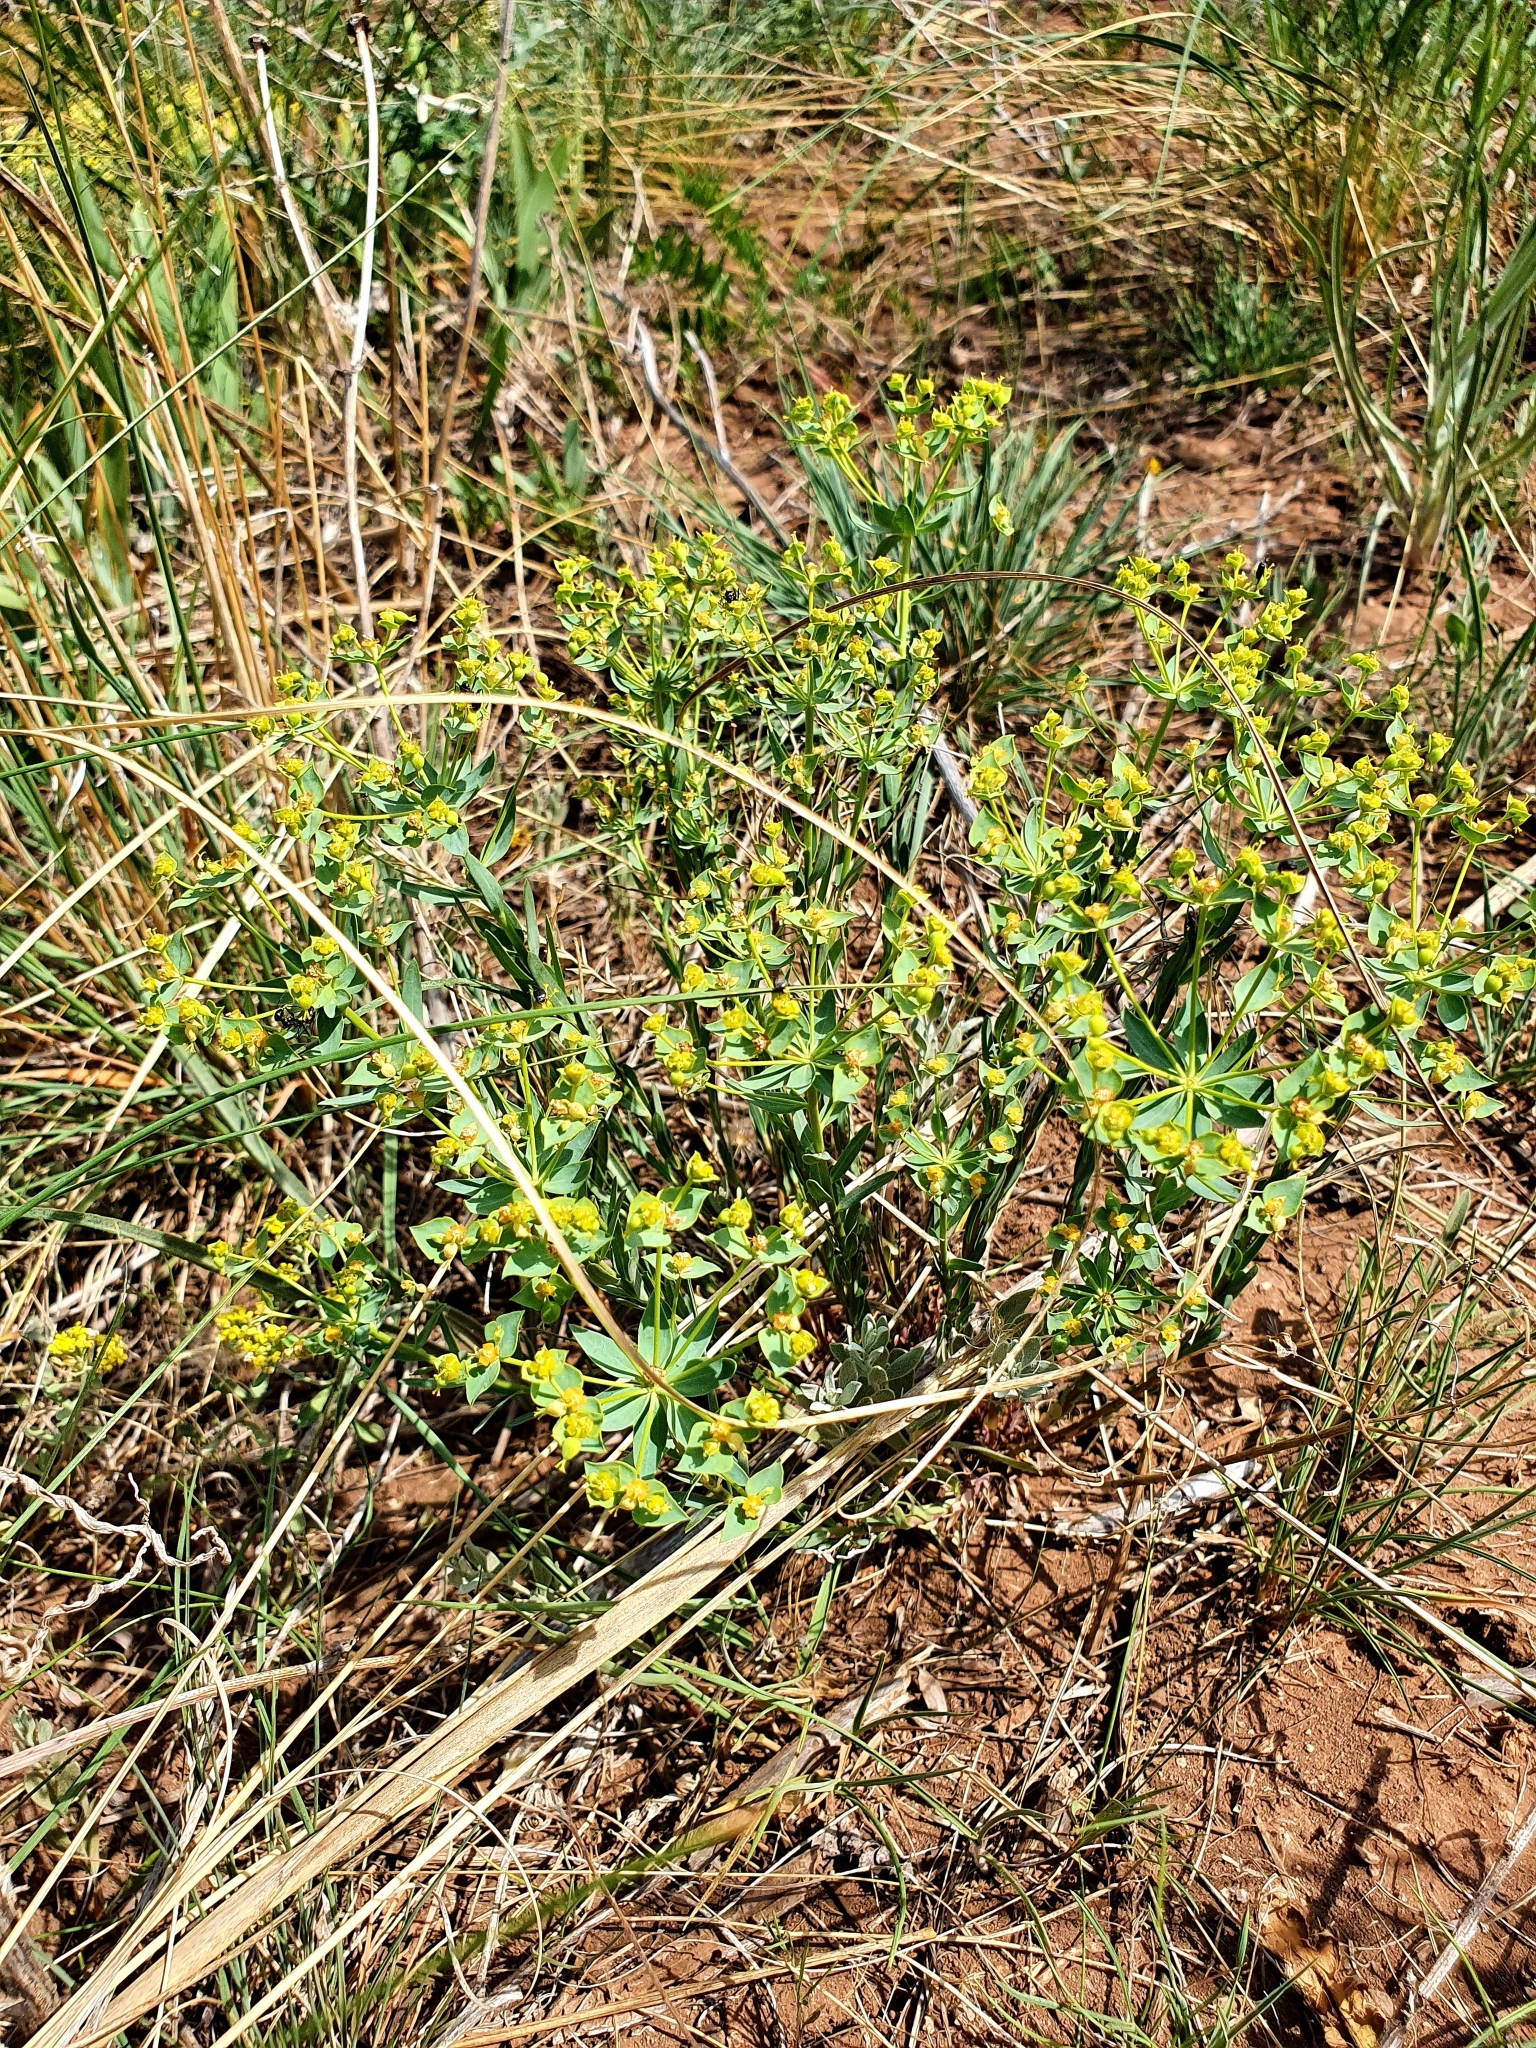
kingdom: Plantae
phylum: Tracheophyta
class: Magnoliopsida
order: Malpighiales
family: Euphorbiaceae
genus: Euphorbia
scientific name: Euphorbia seguieriana
